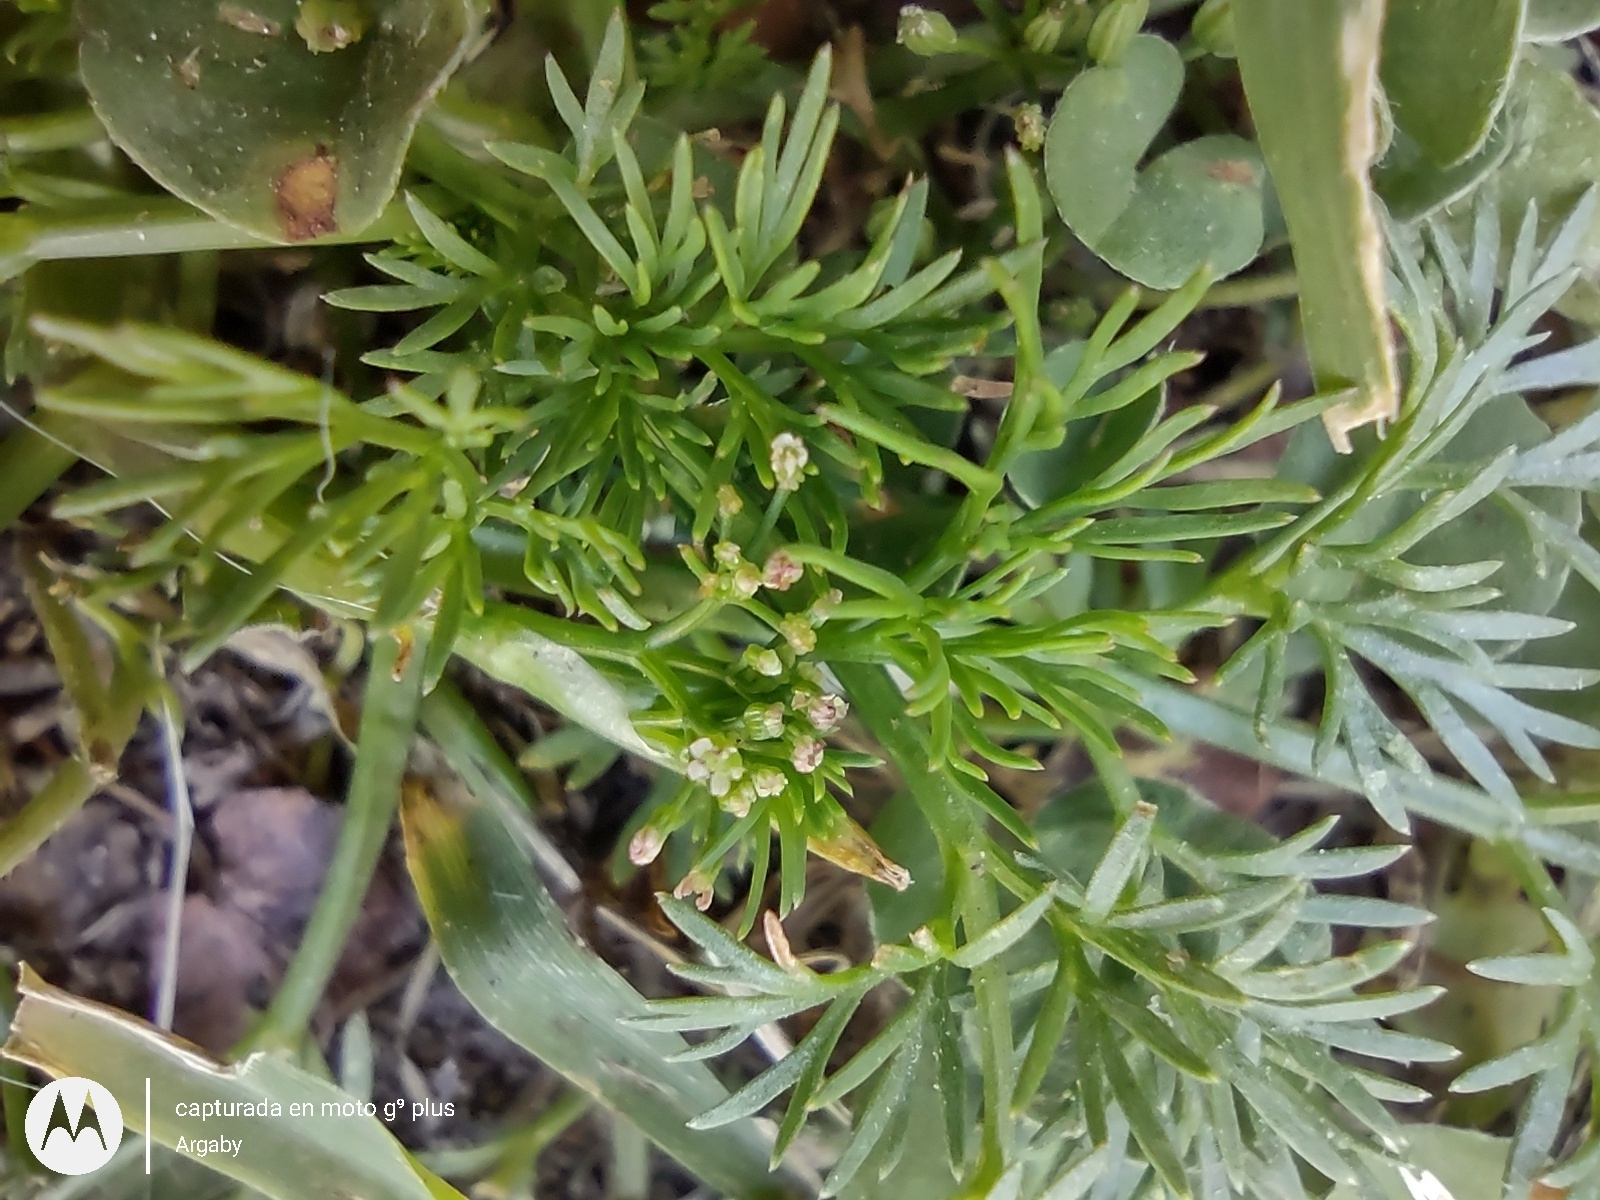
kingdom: Plantae
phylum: Tracheophyta
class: Magnoliopsida
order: Apiales
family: Apiaceae
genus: Cyclospermum
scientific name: Cyclospermum leptophyllum
